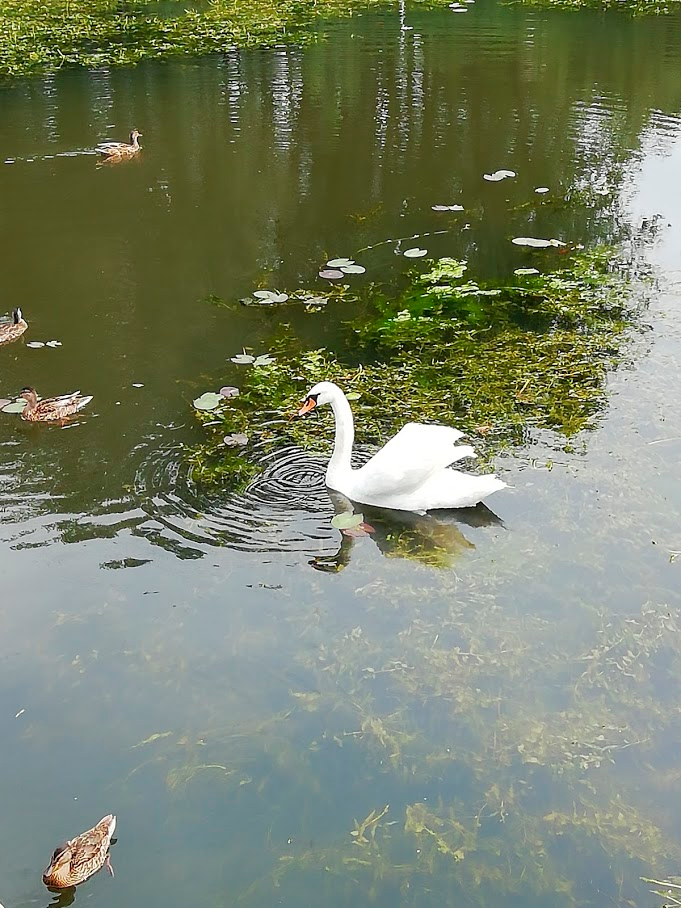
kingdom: Animalia
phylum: Chordata
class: Aves
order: Anseriformes
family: Anatidae
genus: Cygnus
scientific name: Cygnus olor
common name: Mute swan
